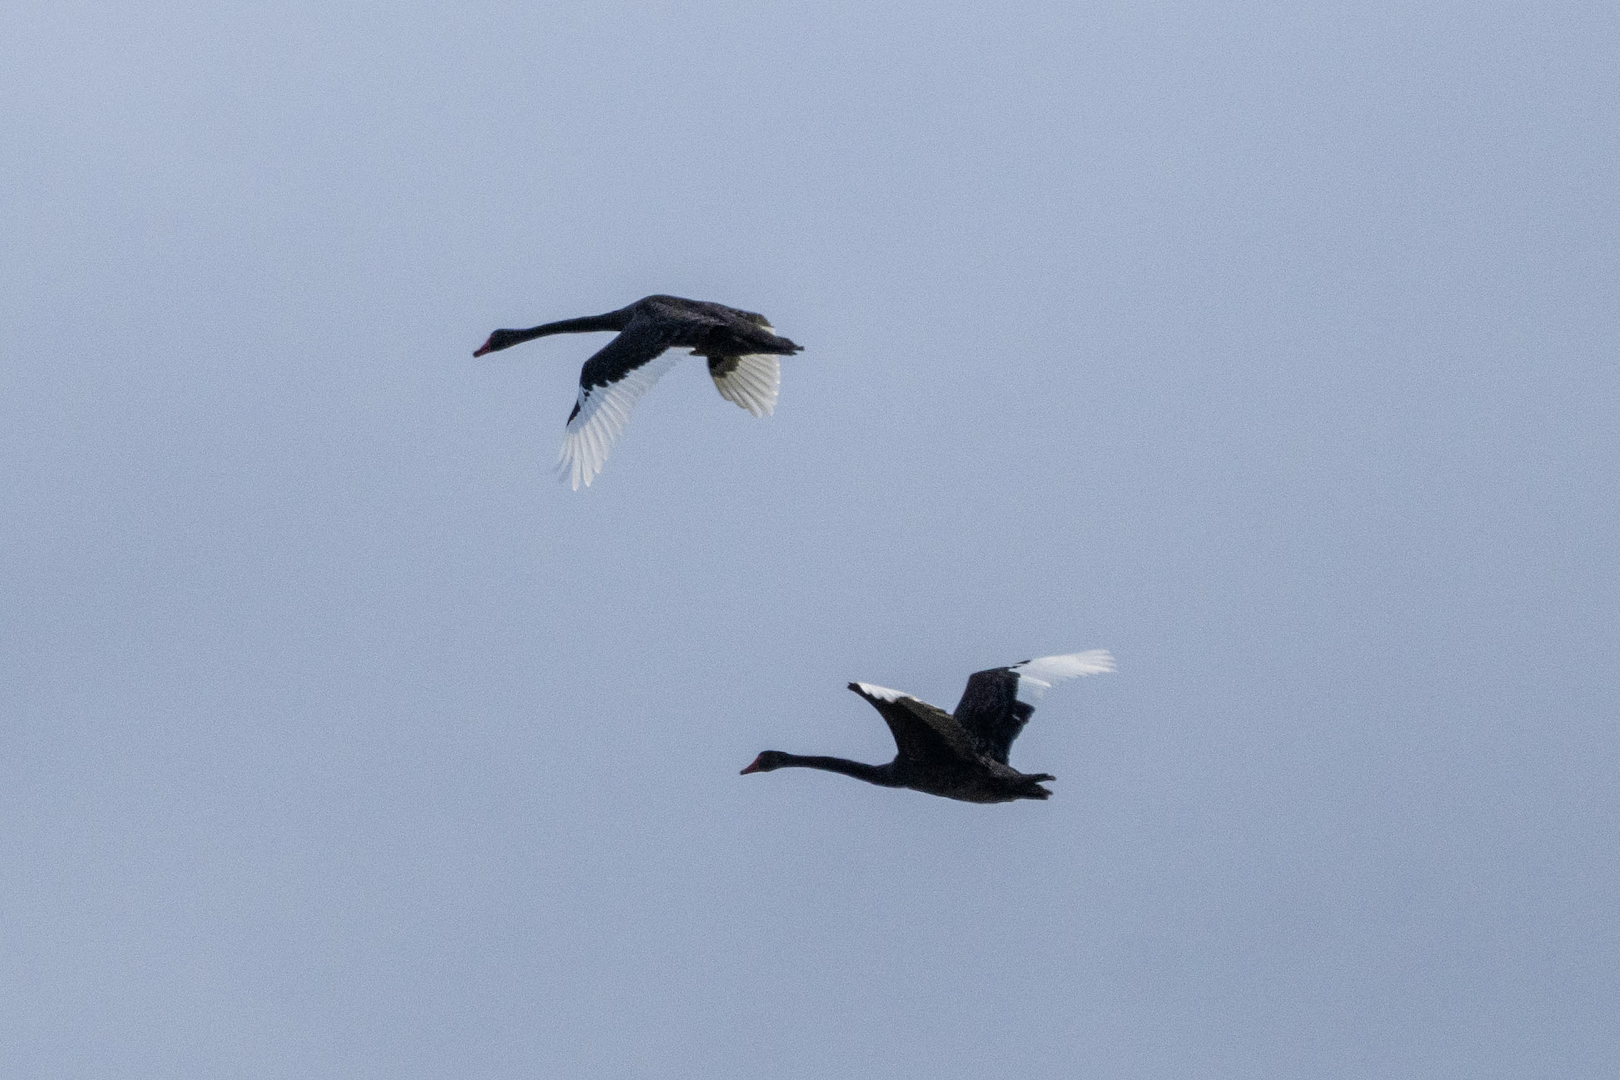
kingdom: Animalia
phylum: Chordata
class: Aves
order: Anseriformes
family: Anatidae
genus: Cygnus
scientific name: Cygnus atratus
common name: Black swan
